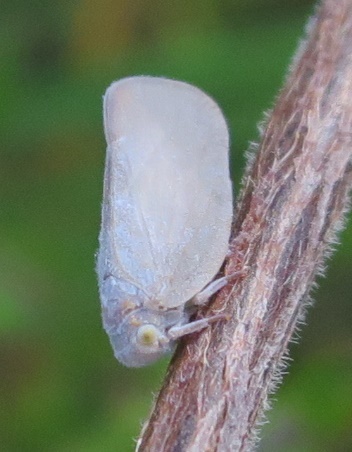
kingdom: Animalia
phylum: Arthropoda
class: Insecta
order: Hemiptera
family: Flatidae
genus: Anzora
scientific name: Anzora unicolor
